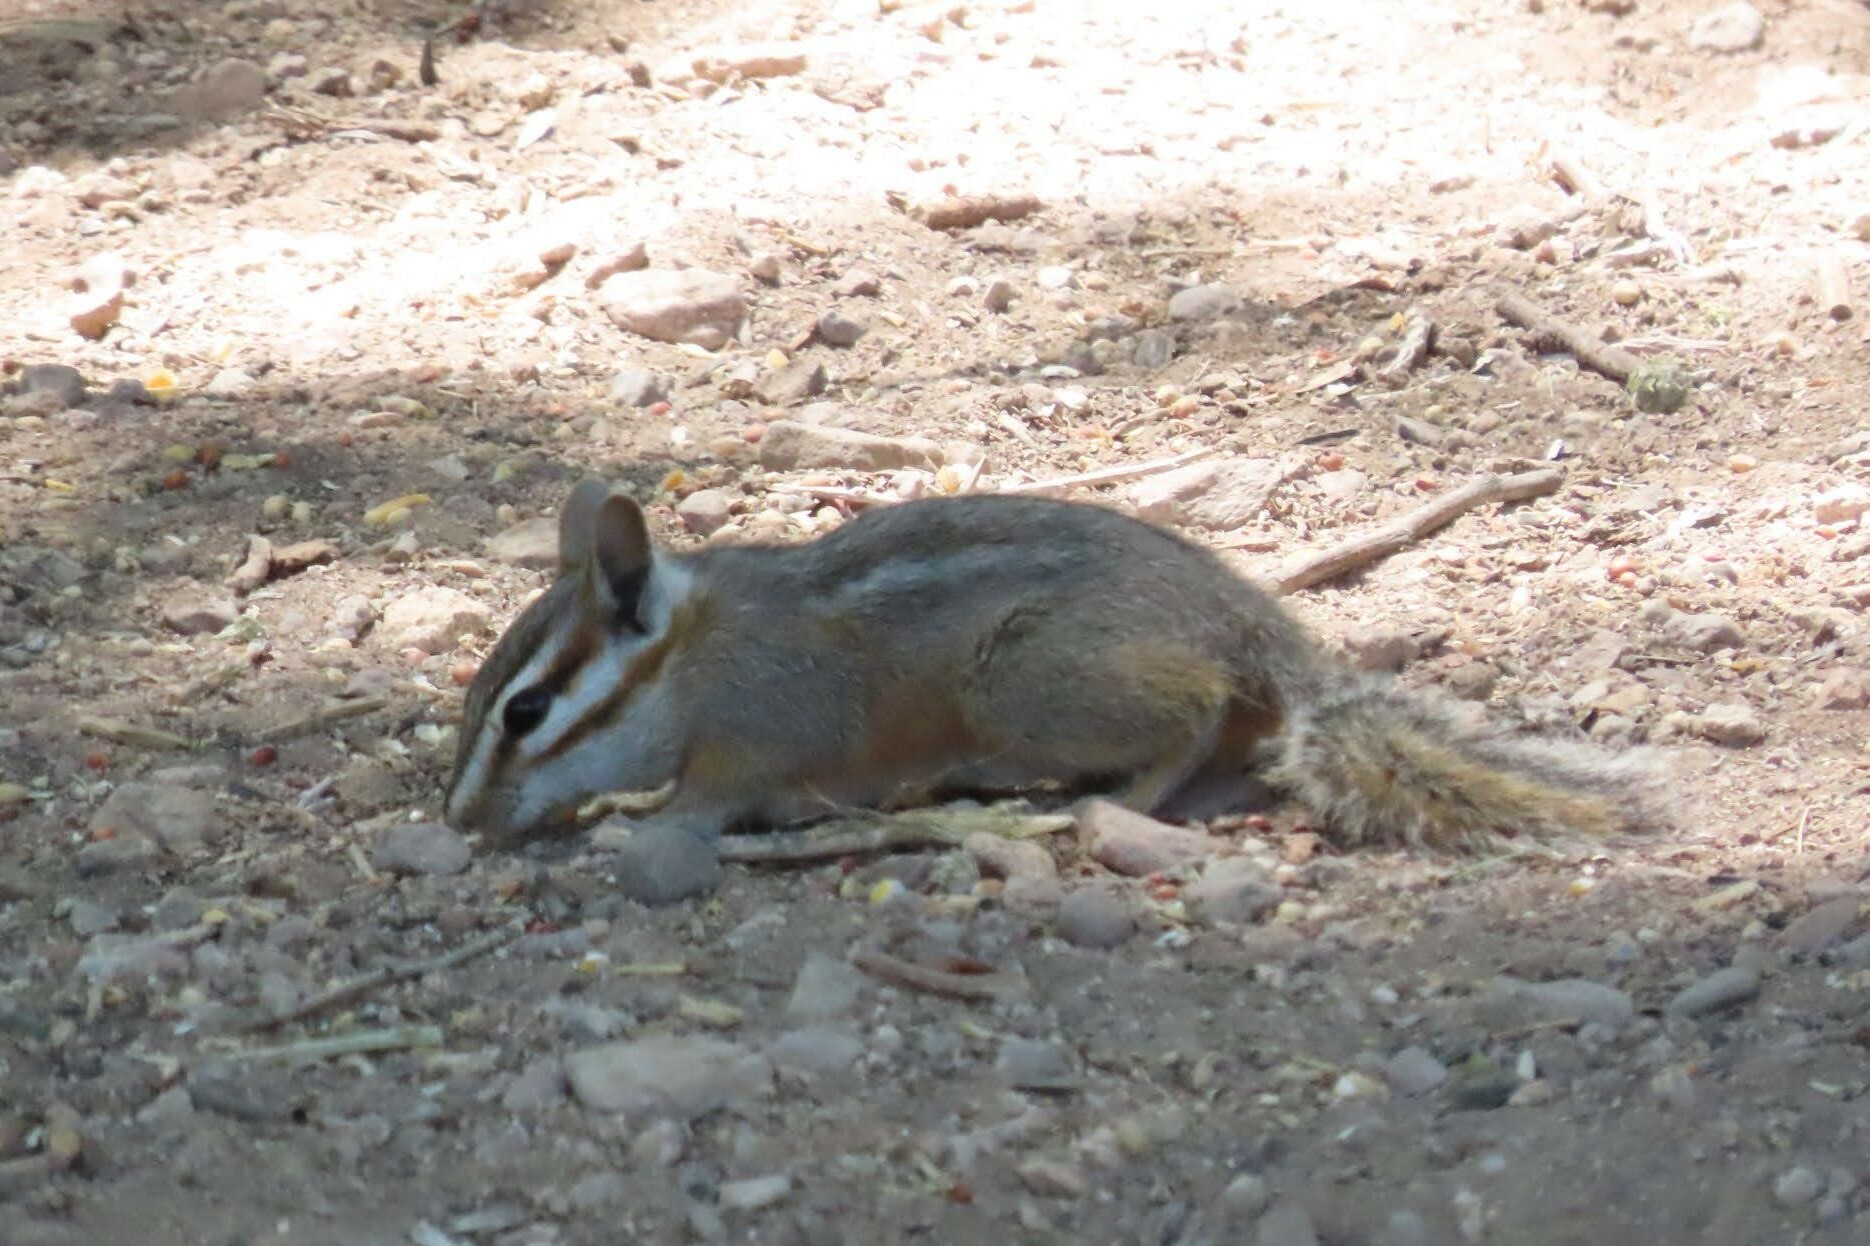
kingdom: Animalia
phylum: Chordata
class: Mammalia
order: Rodentia
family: Sciuridae
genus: Tamias
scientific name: Tamias dorsalis
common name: Cliff chipmunk
